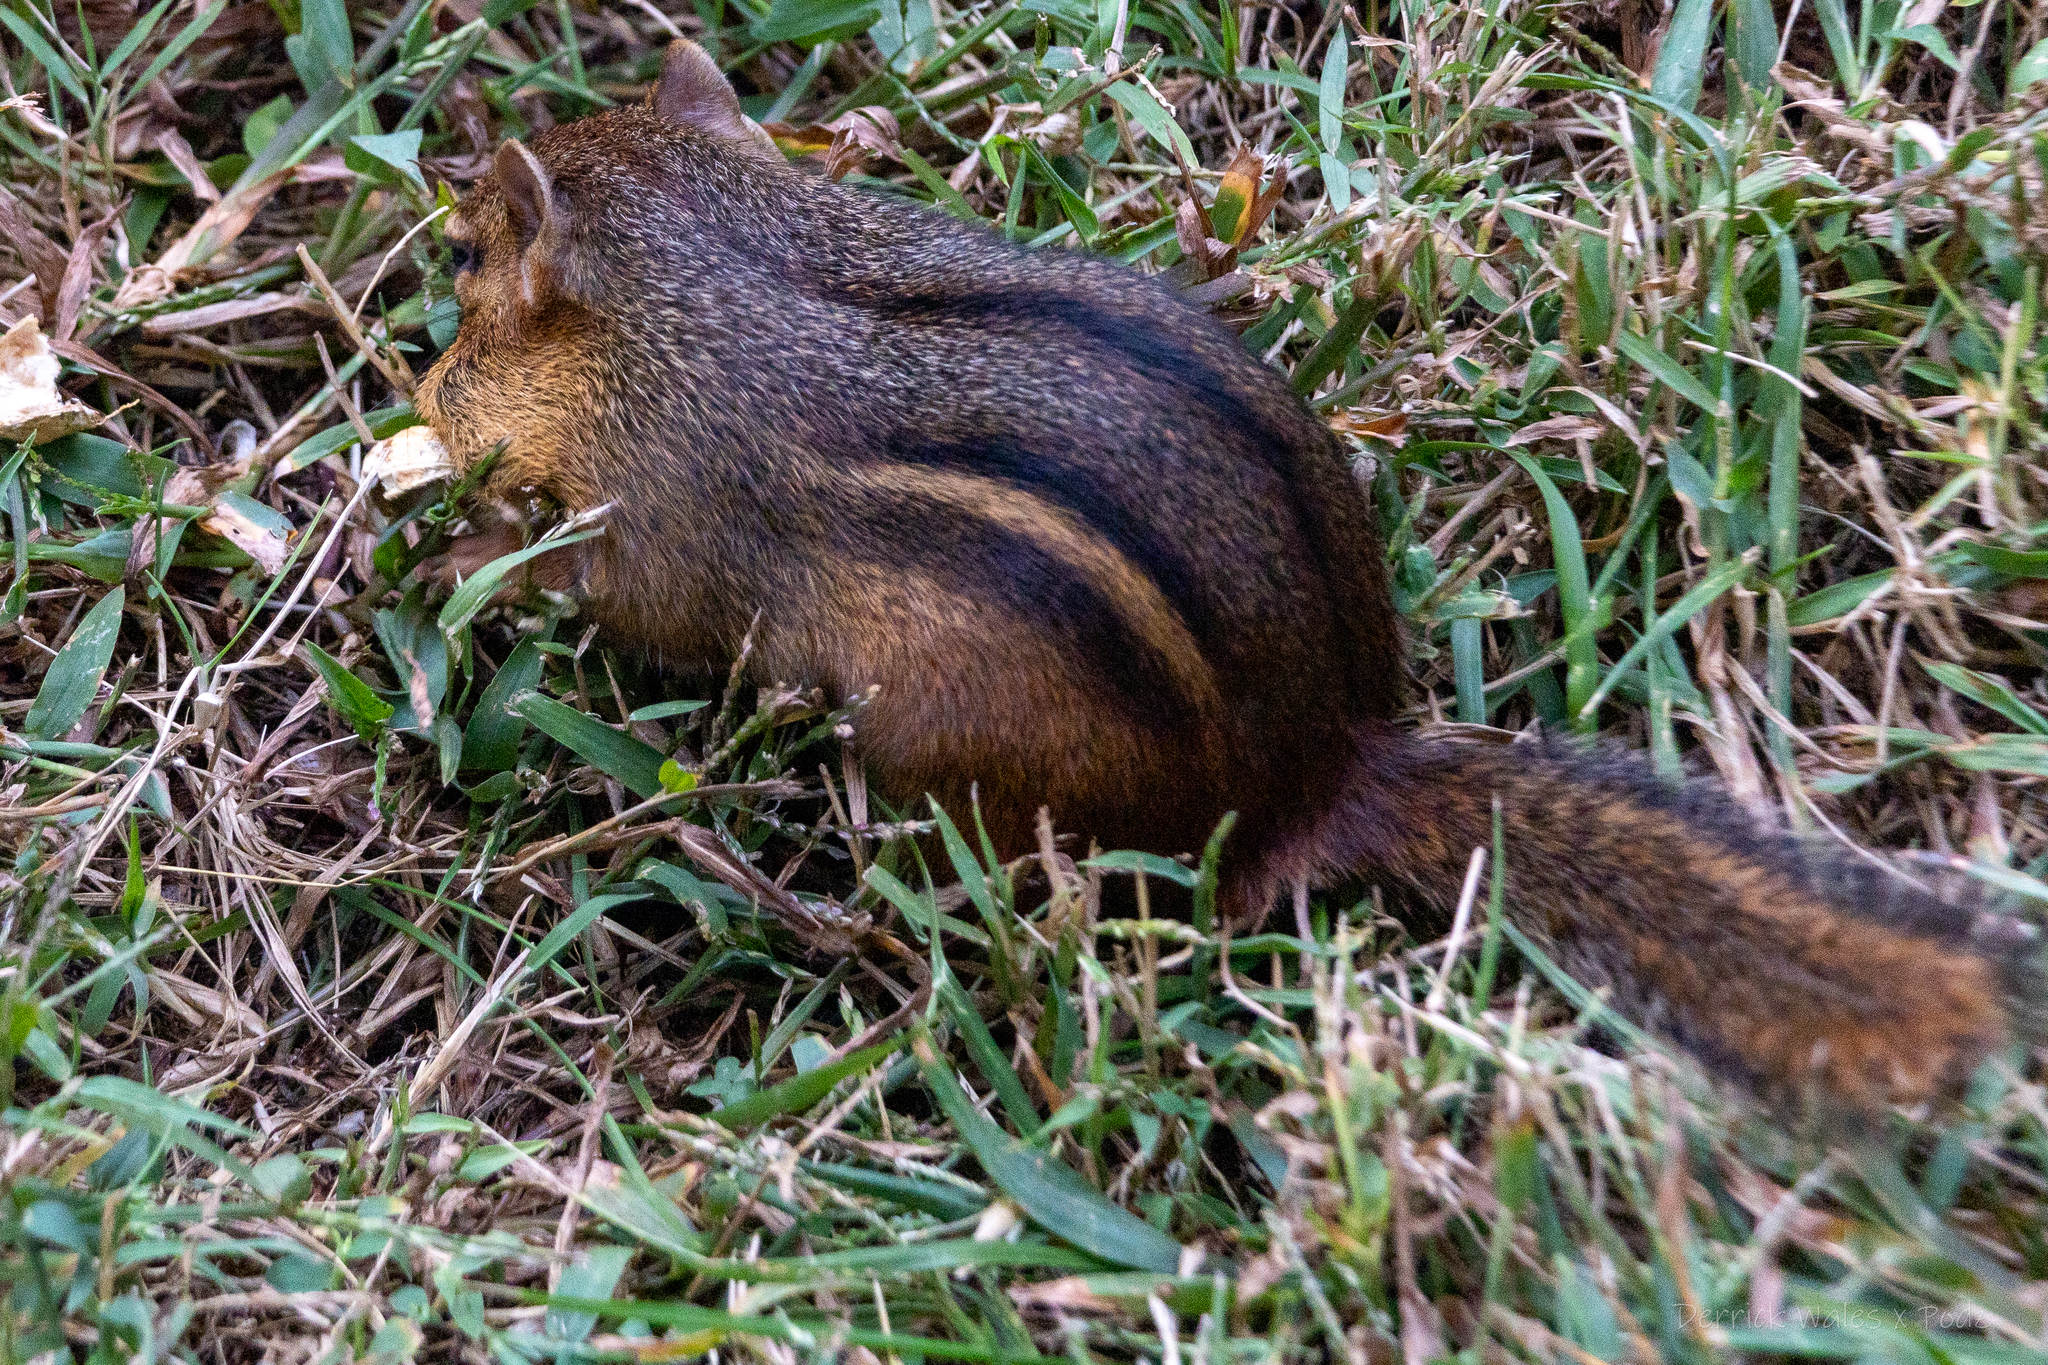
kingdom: Animalia
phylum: Chordata
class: Mammalia
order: Rodentia
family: Sciuridae
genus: Tamias
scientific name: Tamias striatus
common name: Eastern chipmunk
